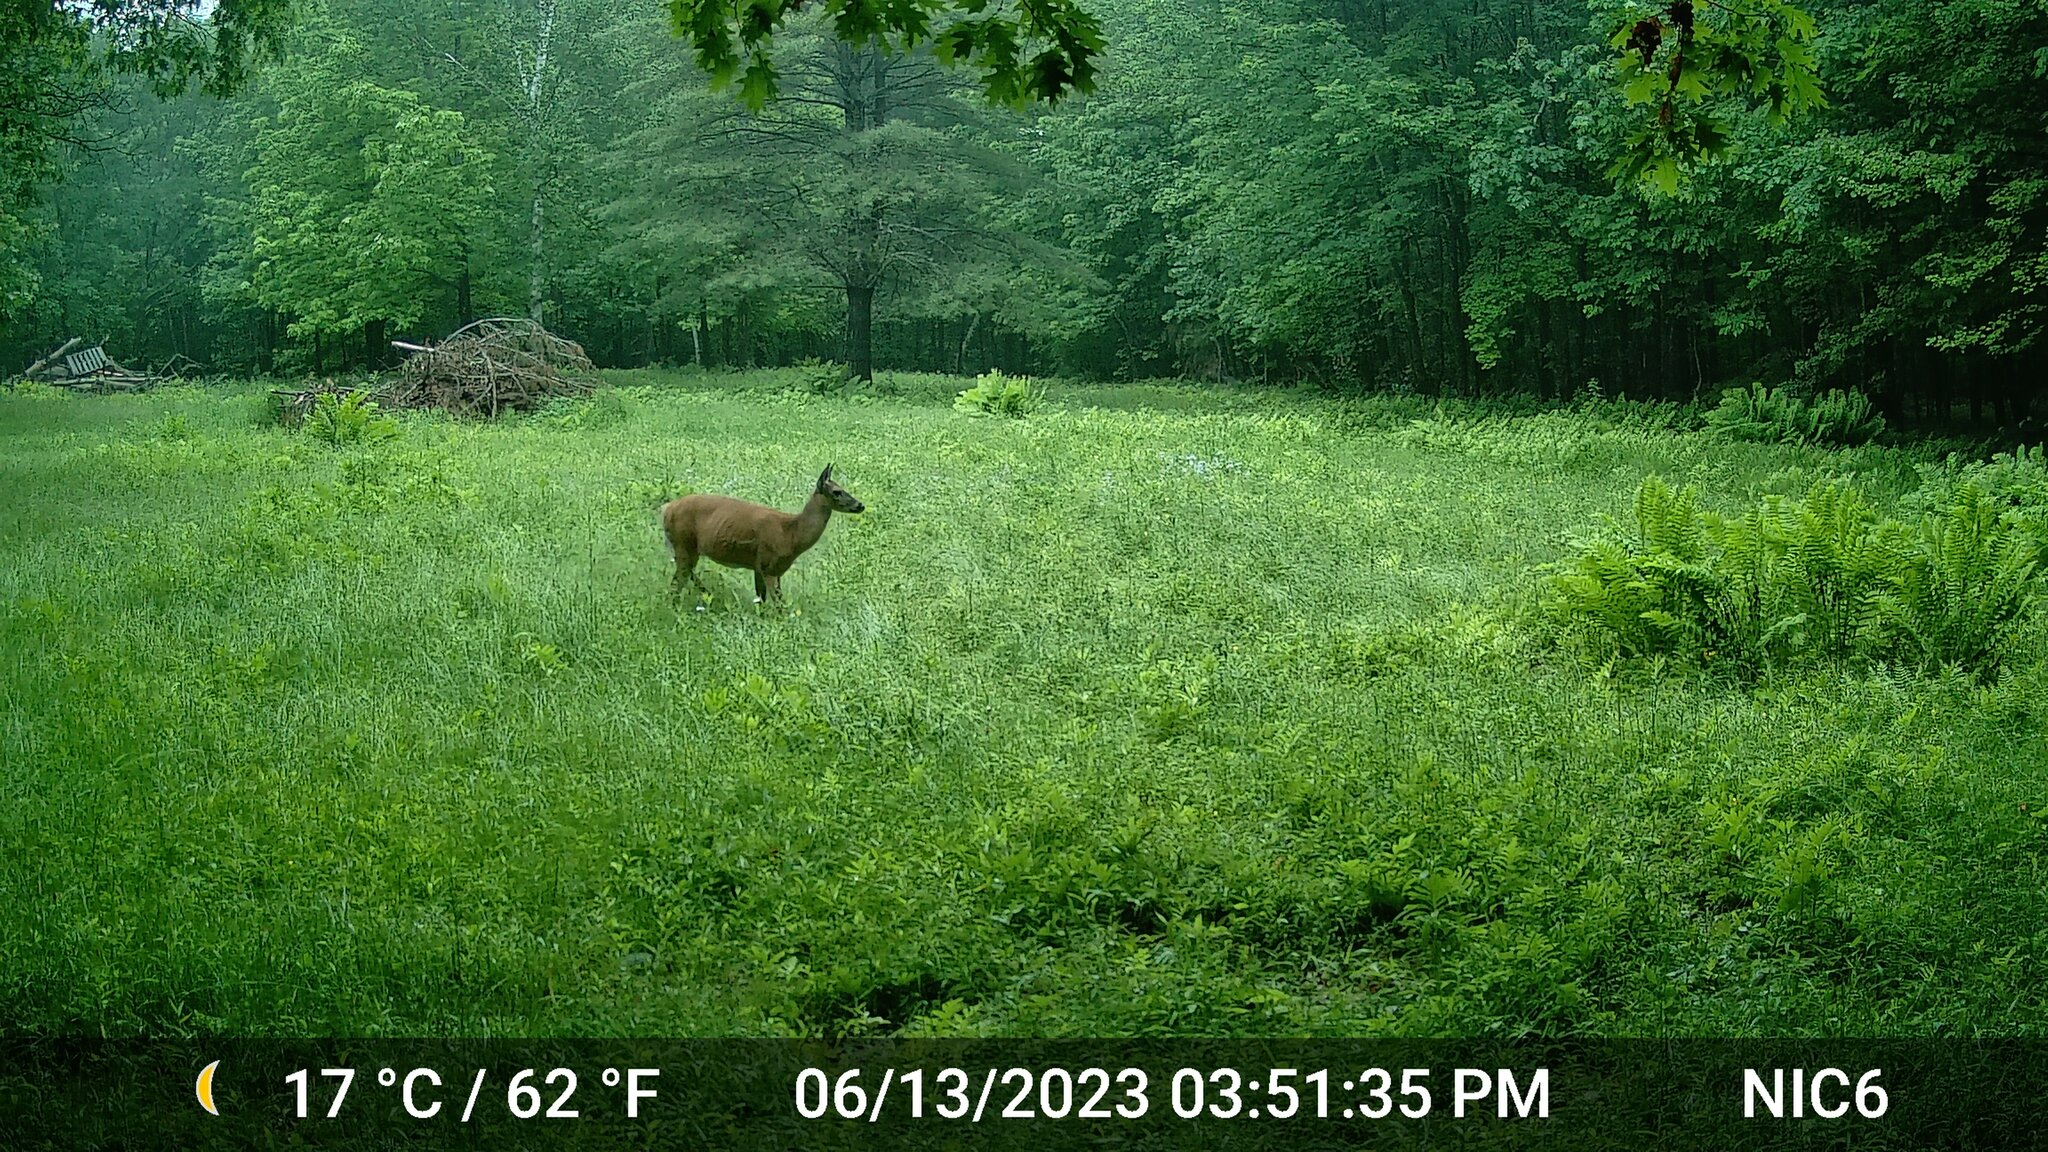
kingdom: Animalia
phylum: Chordata
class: Mammalia
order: Artiodactyla
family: Cervidae
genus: Odocoileus
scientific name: Odocoileus virginianus
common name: White-tailed deer
